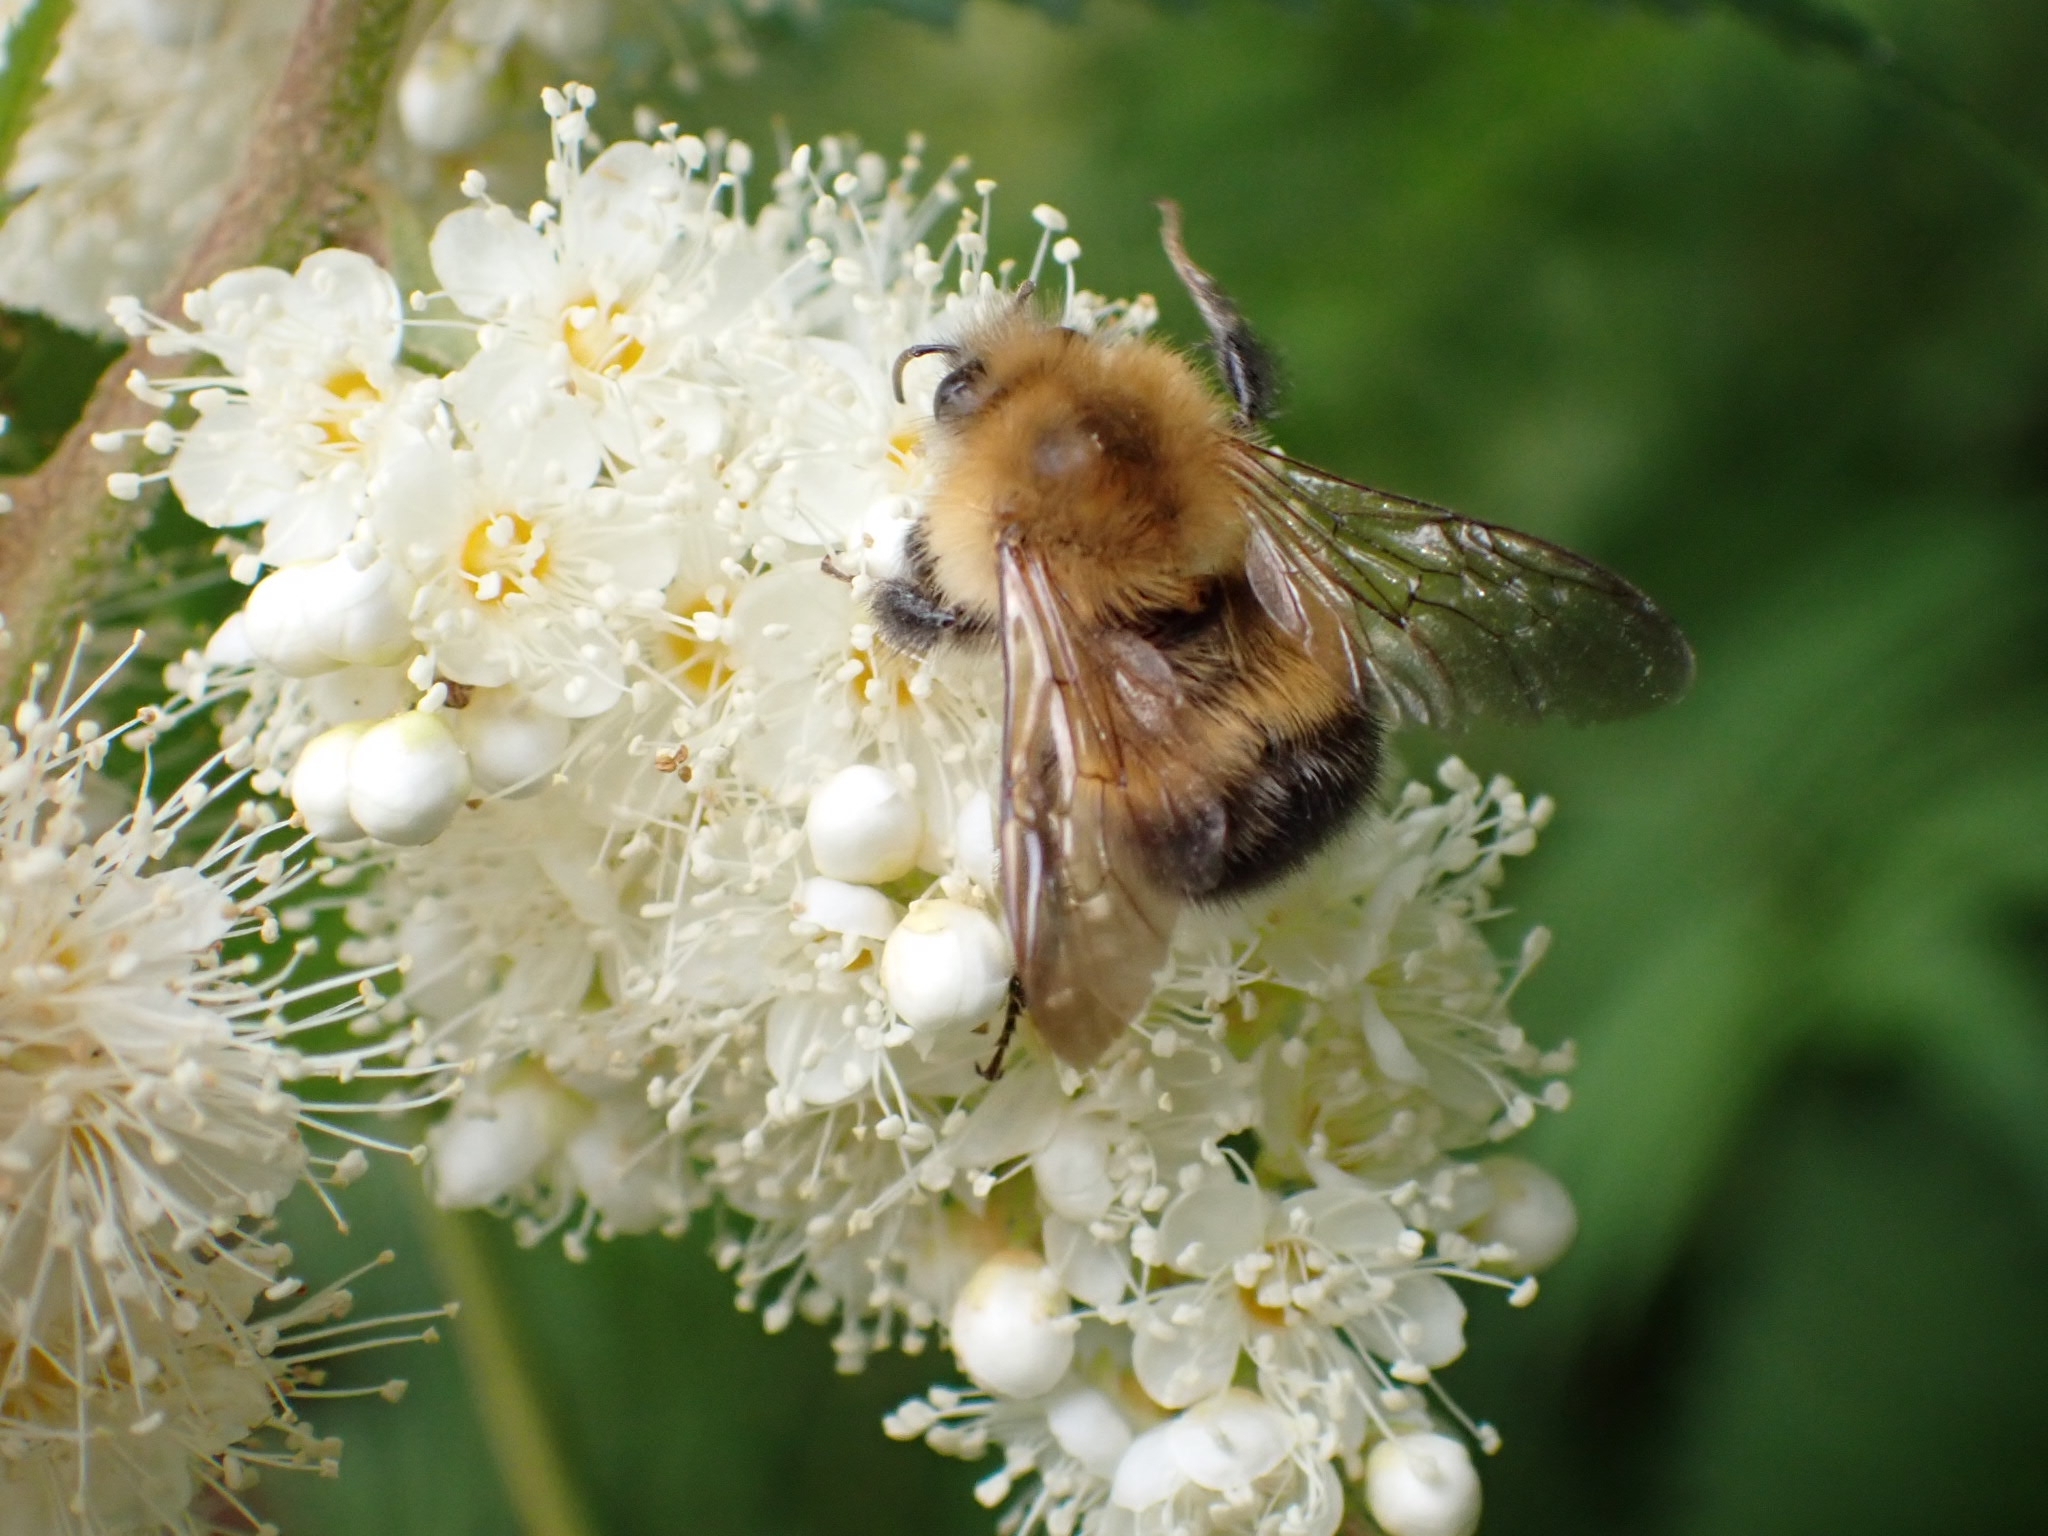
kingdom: Animalia
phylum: Arthropoda
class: Insecta
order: Hymenoptera
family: Apidae
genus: Bombus
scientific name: Bombus hypnorum
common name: New garden bumblebee
